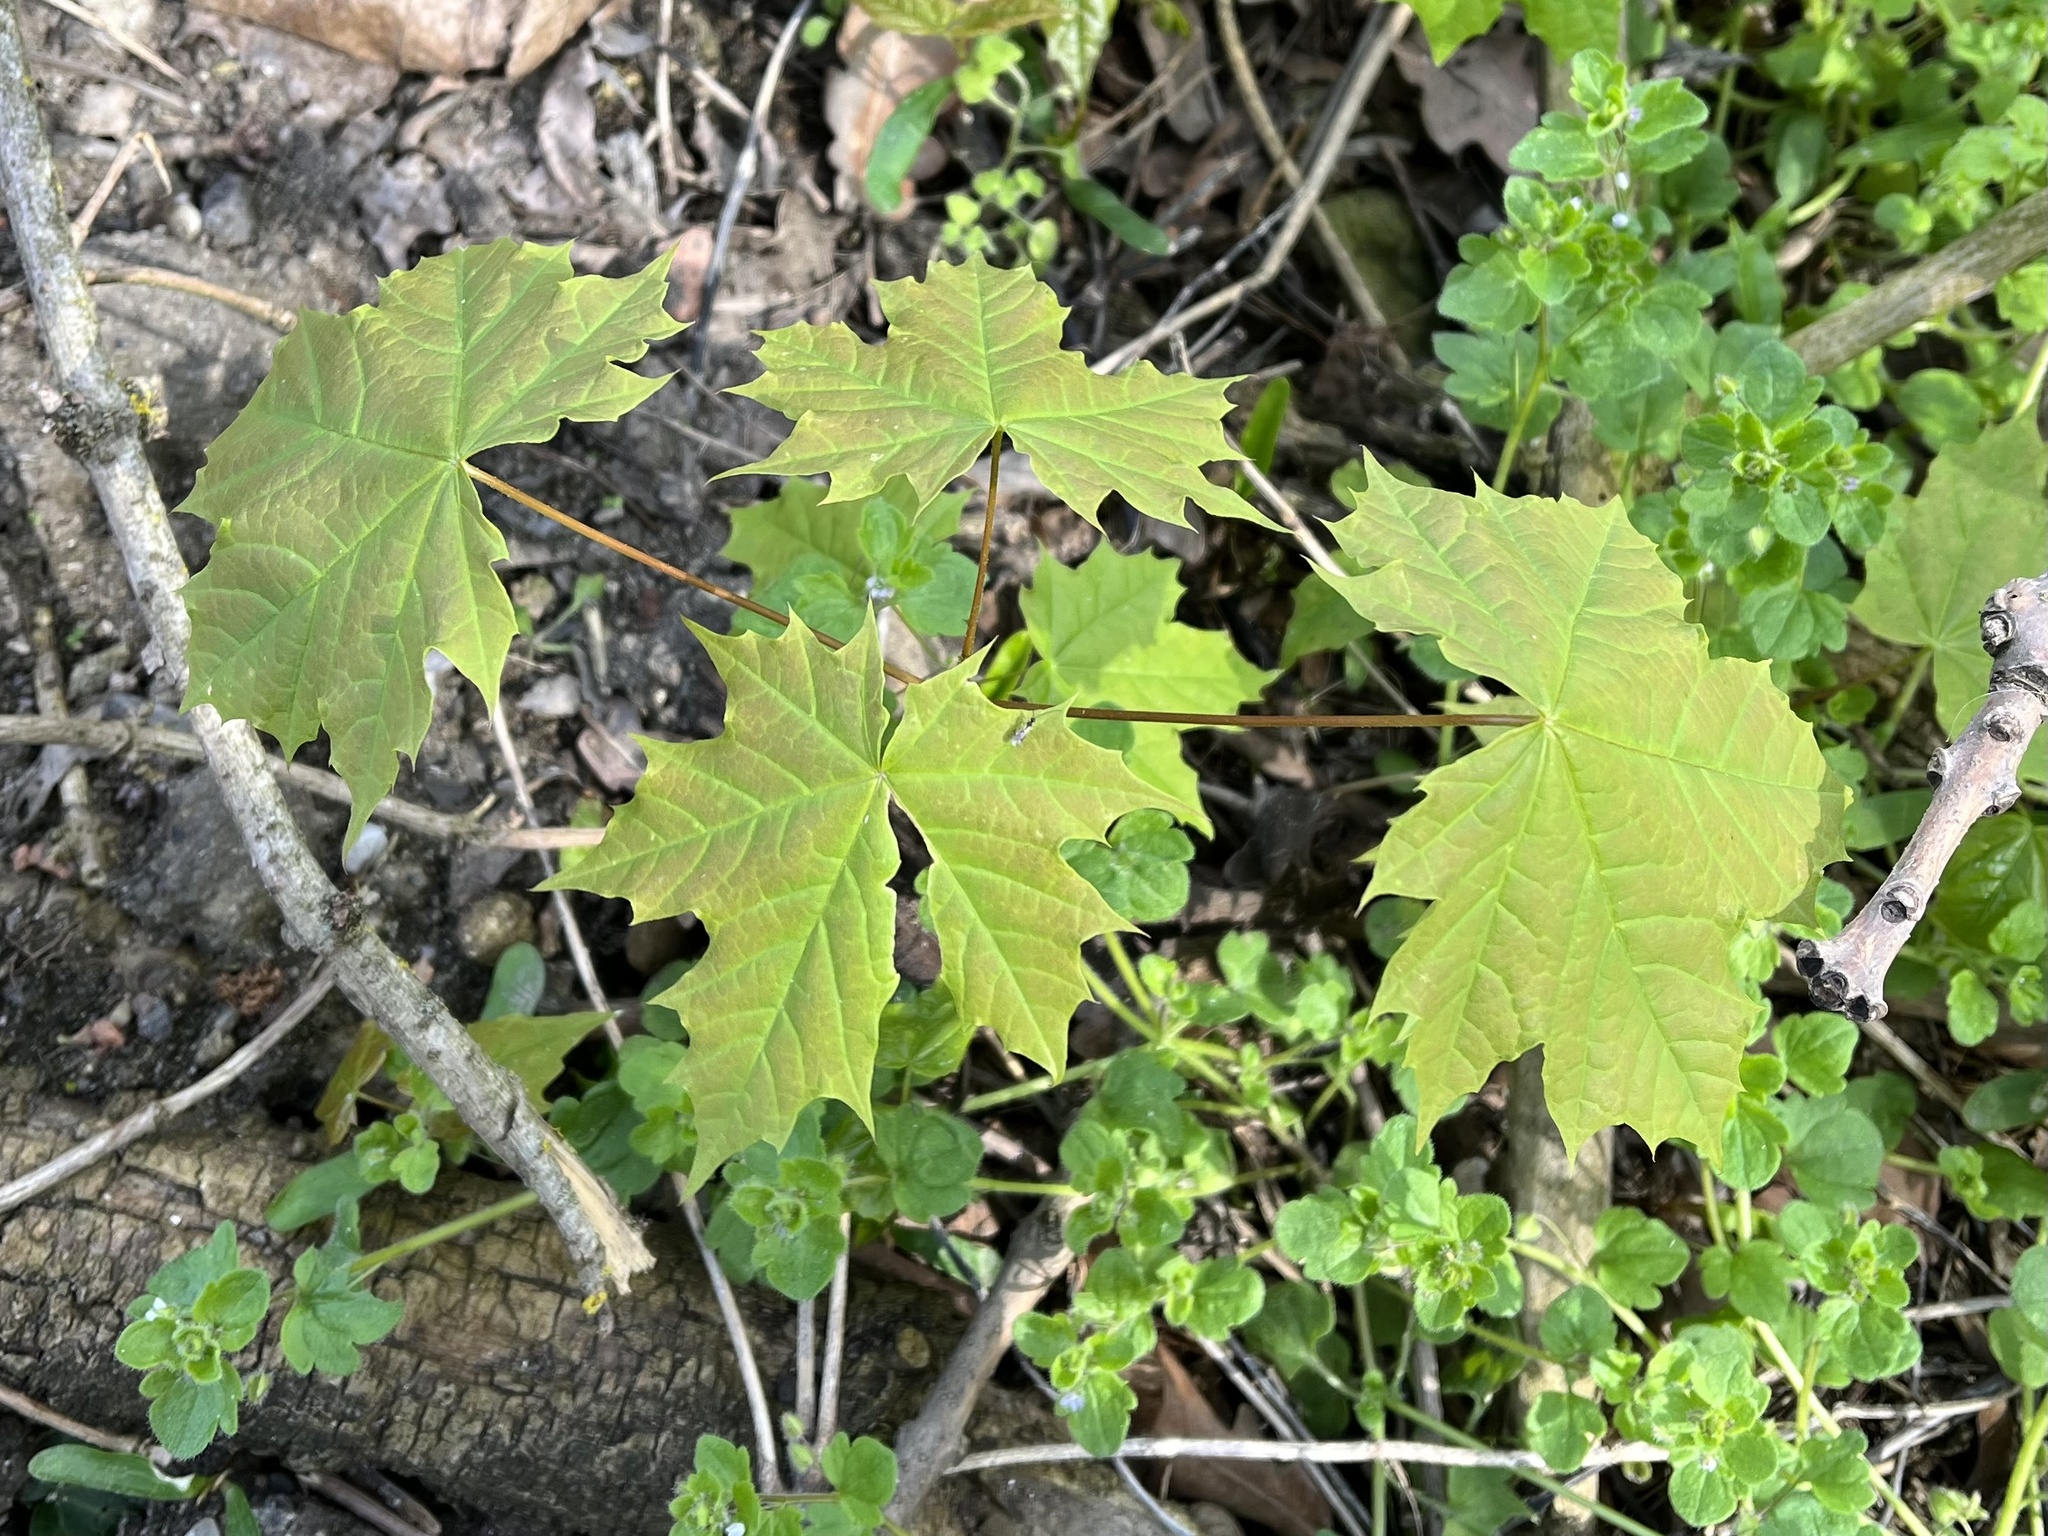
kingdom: Plantae
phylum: Tracheophyta
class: Magnoliopsida
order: Sapindales
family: Sapindaceae
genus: Acer
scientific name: Acer platanoides
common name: Norway maple
